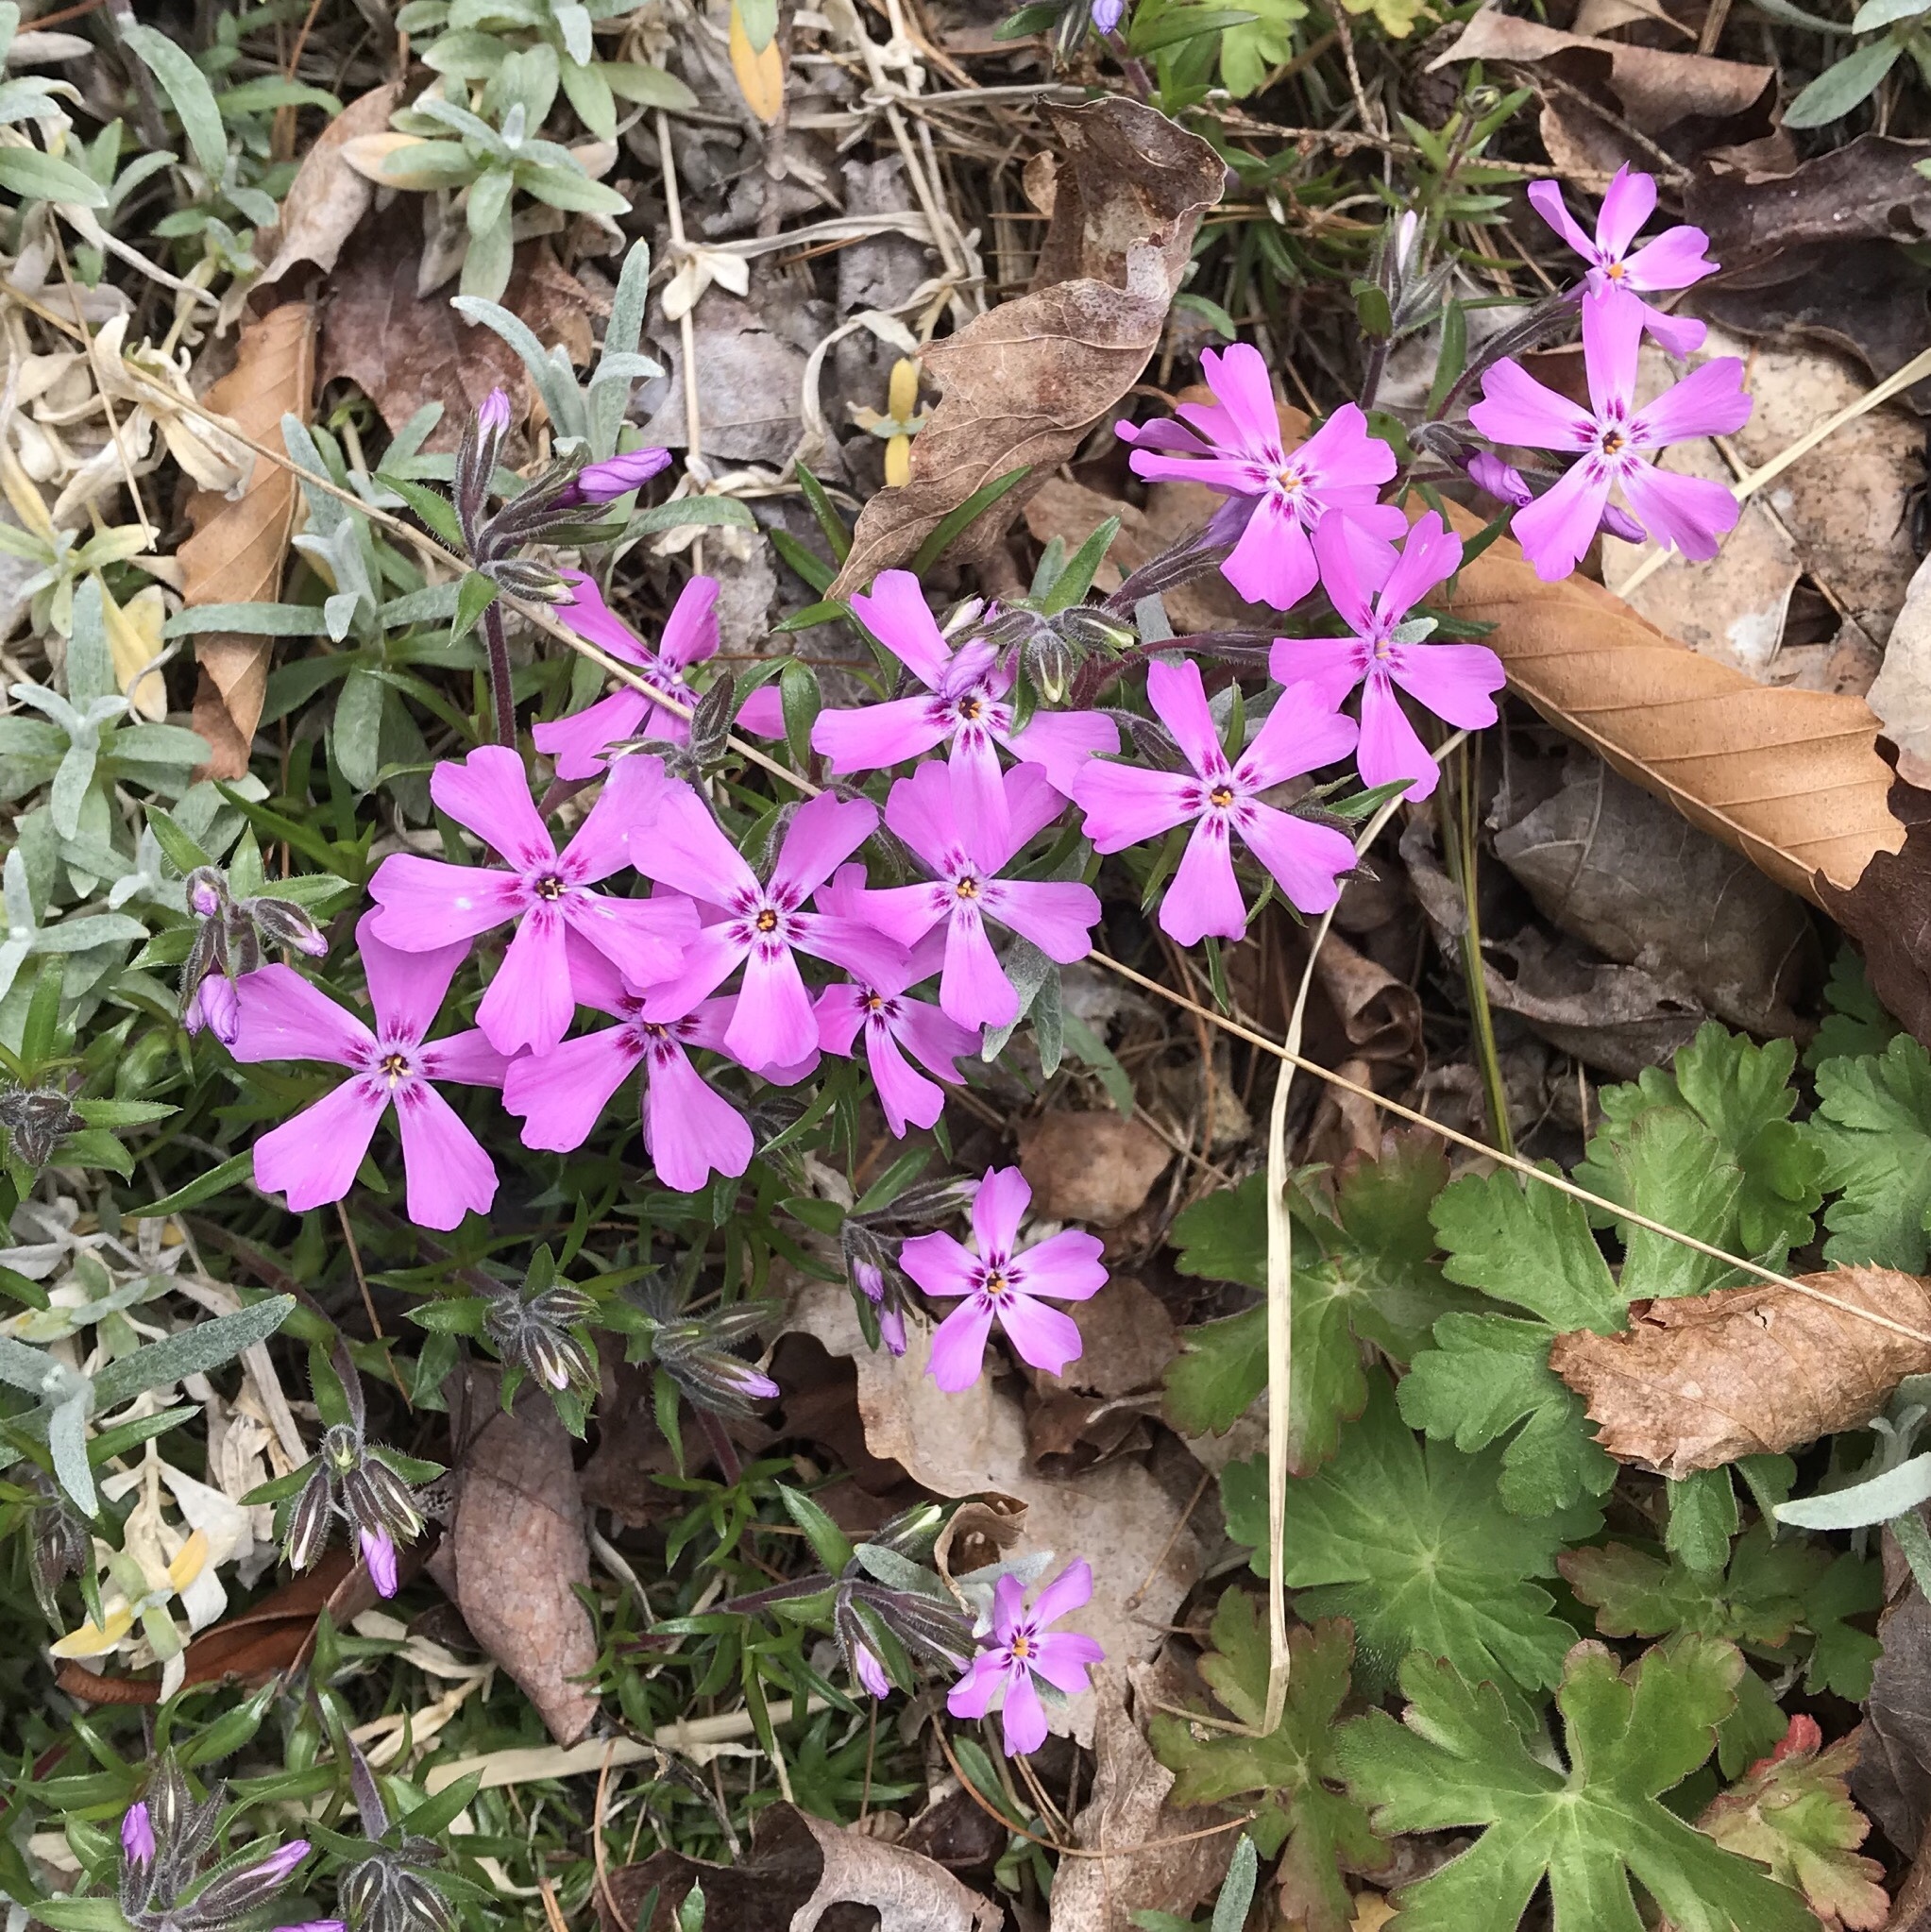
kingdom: Plantae
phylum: Tracheophyta
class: Magnoliopsida
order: Ericales
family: Polemoniaceae
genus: Phlox
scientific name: Phlox subulata
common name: Moss phlox
